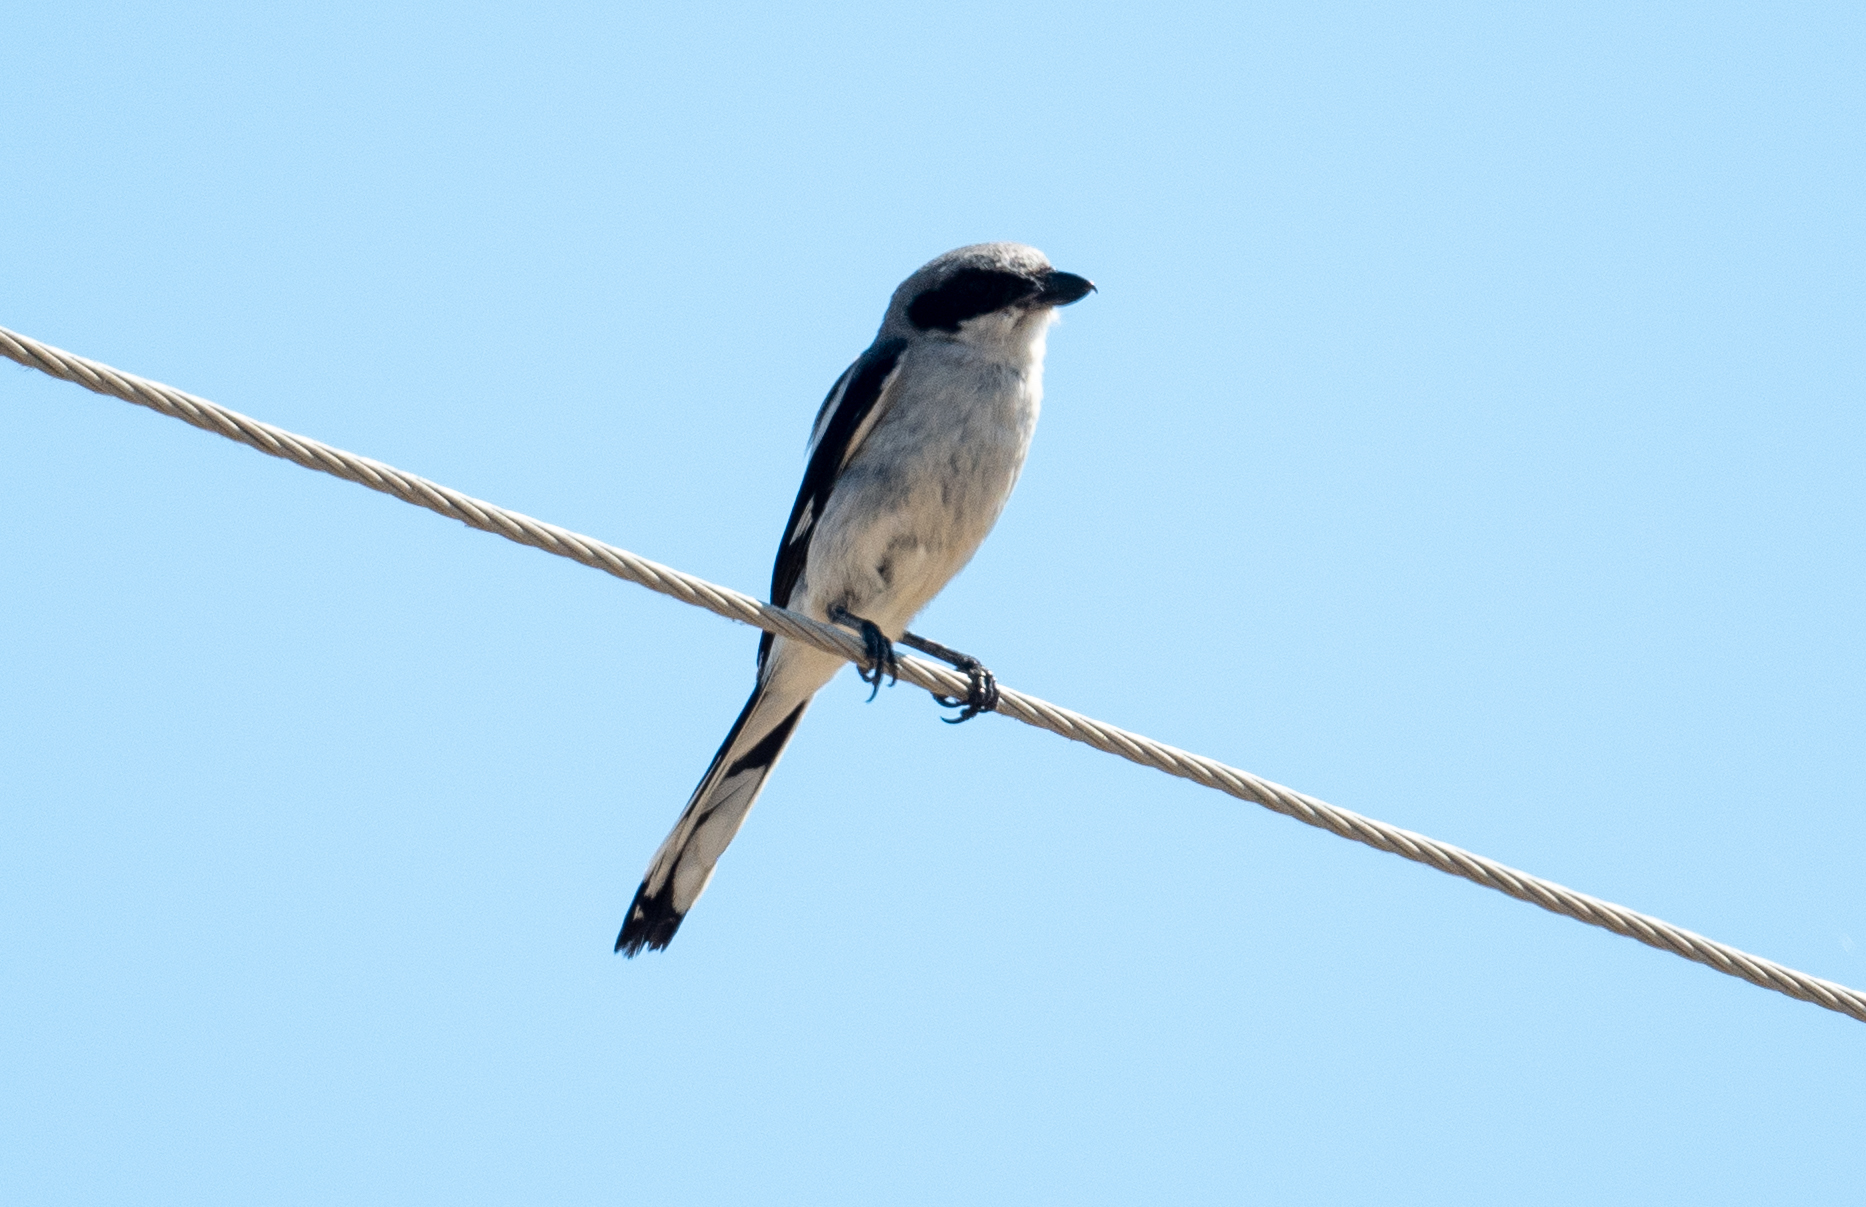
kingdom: Animalia
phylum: Chordata
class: Aves
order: Passeriformes
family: Laniidae
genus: Lanius
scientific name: Lanius ludovicianus
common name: Loggerhead shrike
